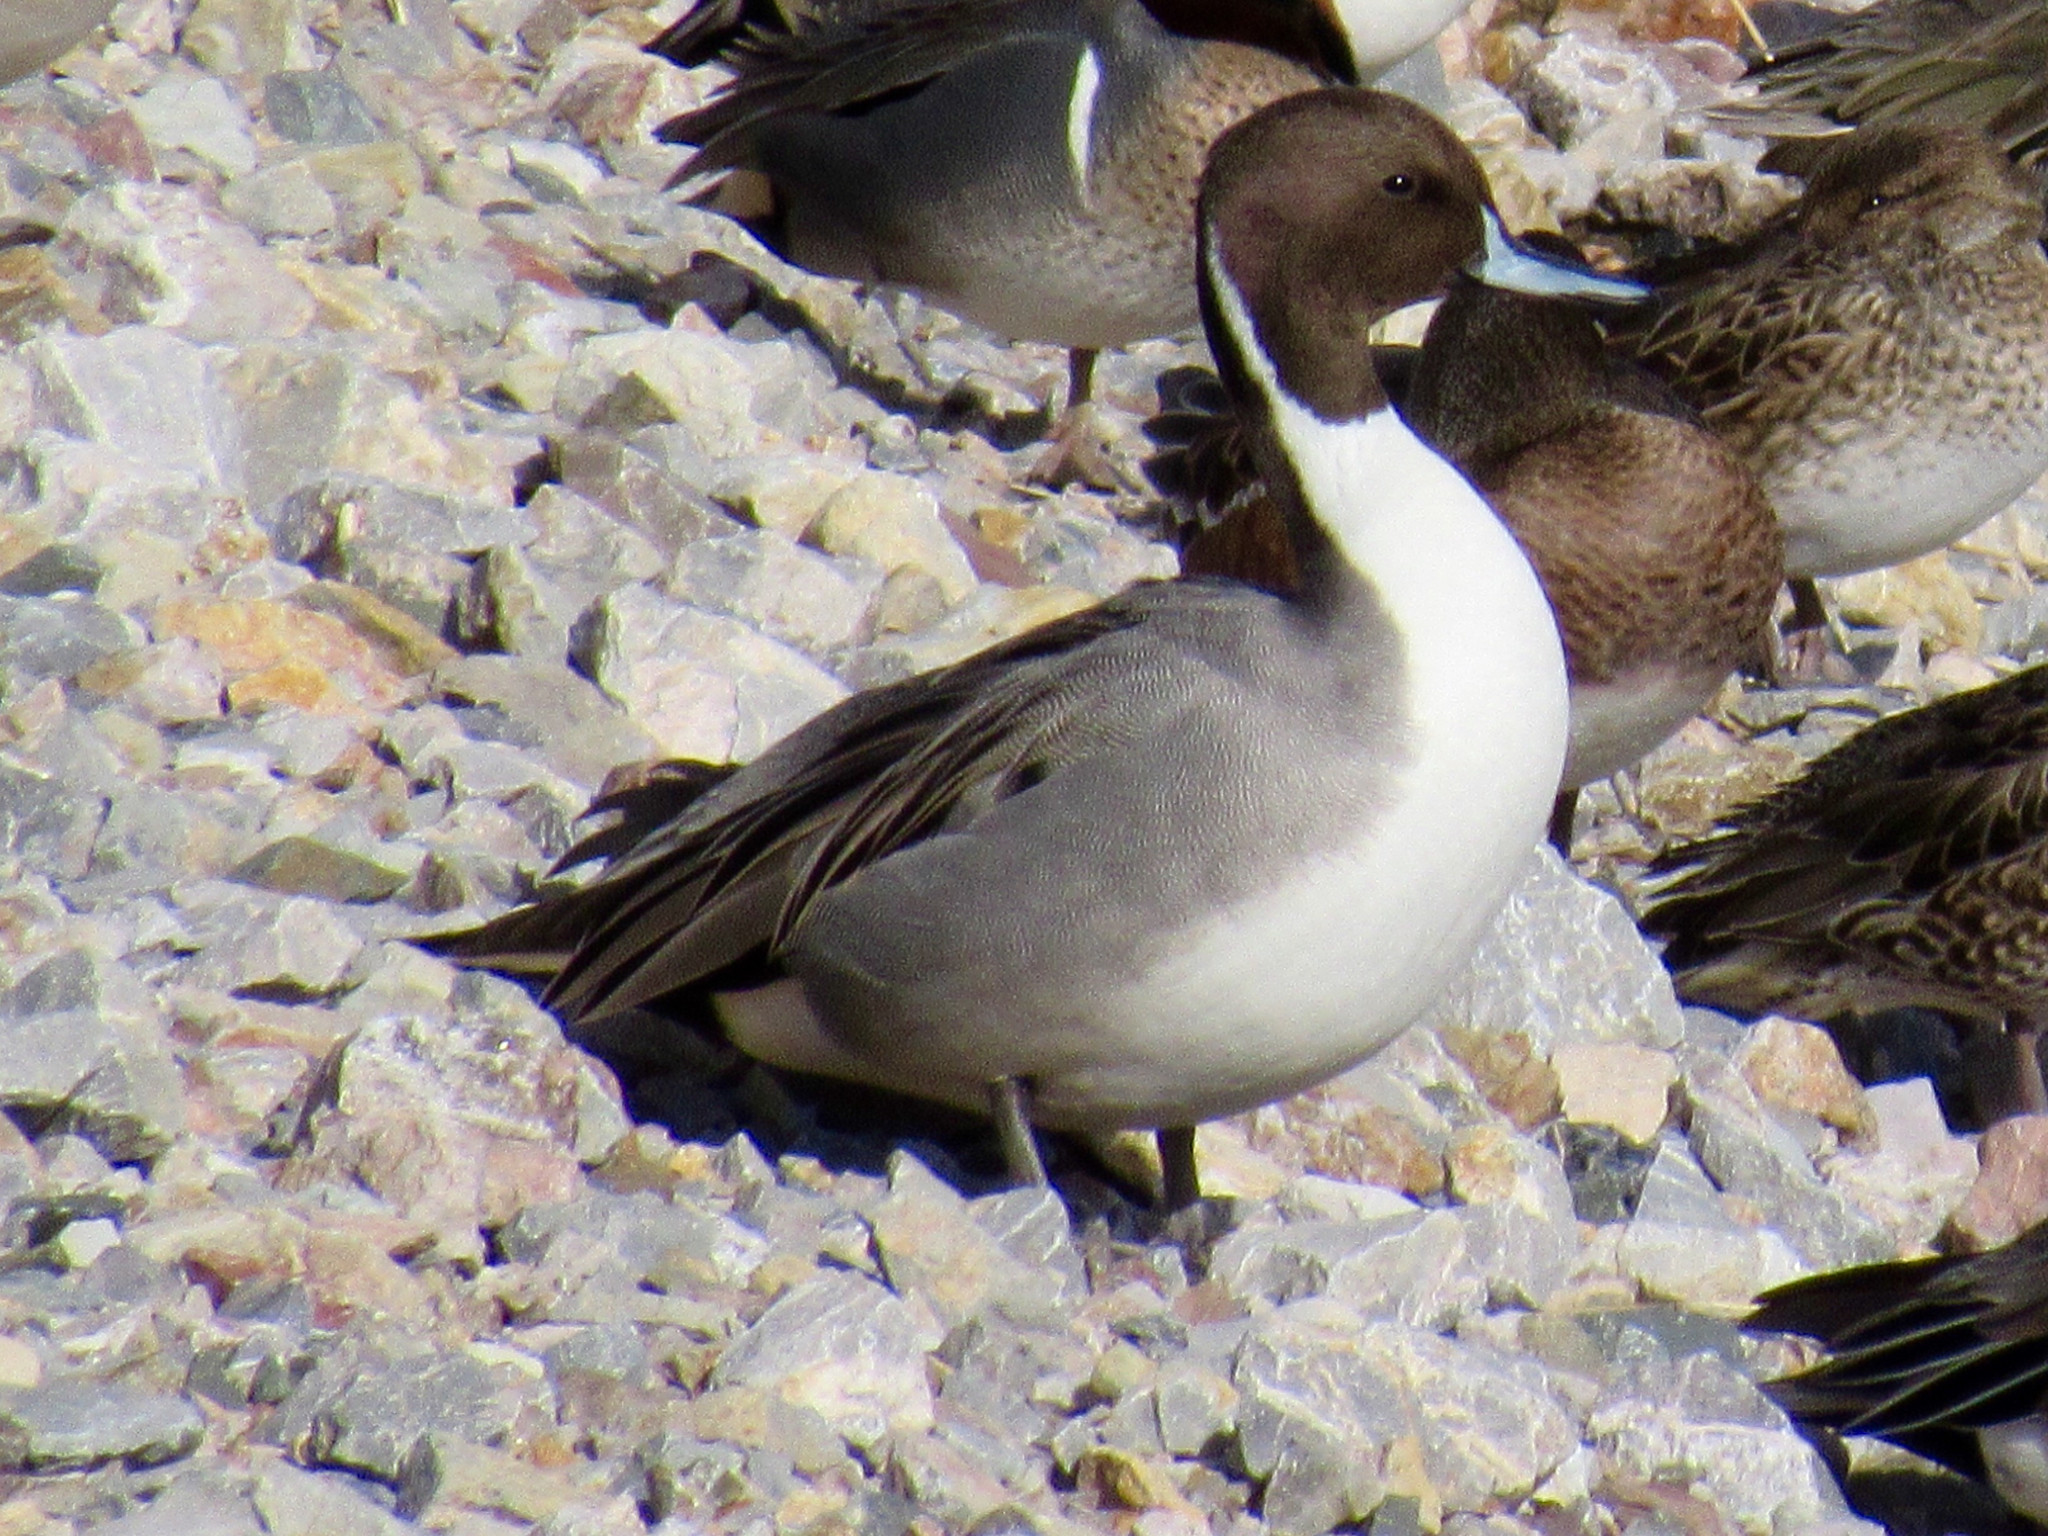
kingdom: Animalia
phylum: Chordata
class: Aves
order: Anseriformes
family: Anatidae
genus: Anas
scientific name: Anas acuta
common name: Northern pintail
